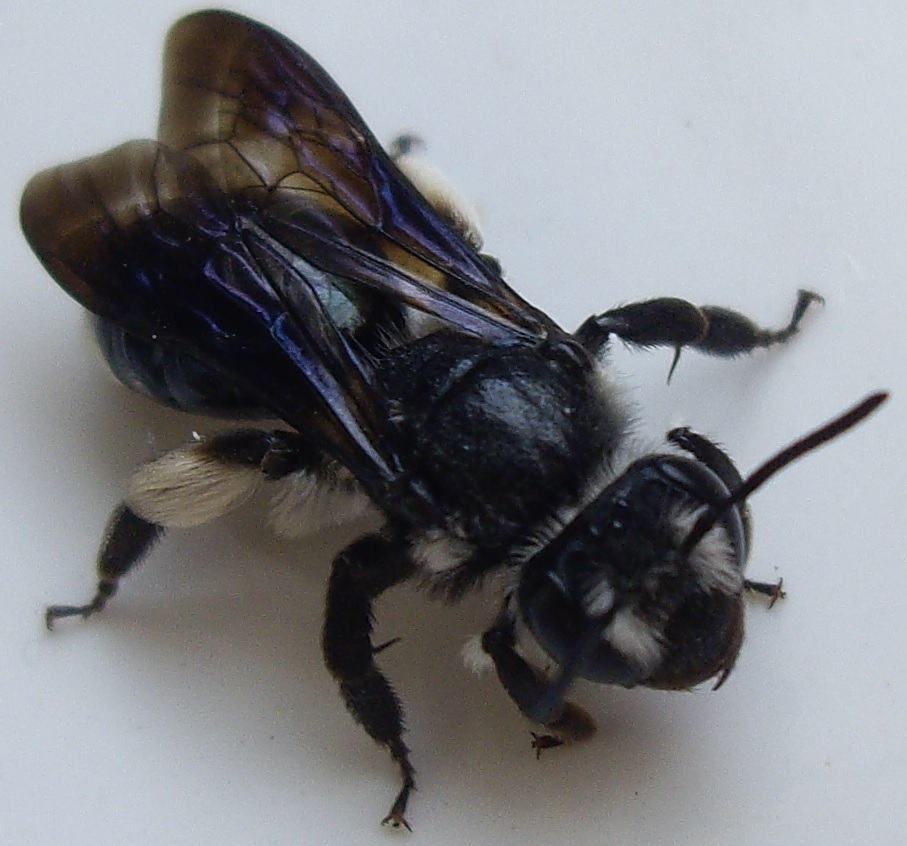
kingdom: Animalia
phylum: Arthropoda
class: Insecta
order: Hymenoptera
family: Andrenidae
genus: Andrena
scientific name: Andrena agilissima
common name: Violet-winged mining bee
